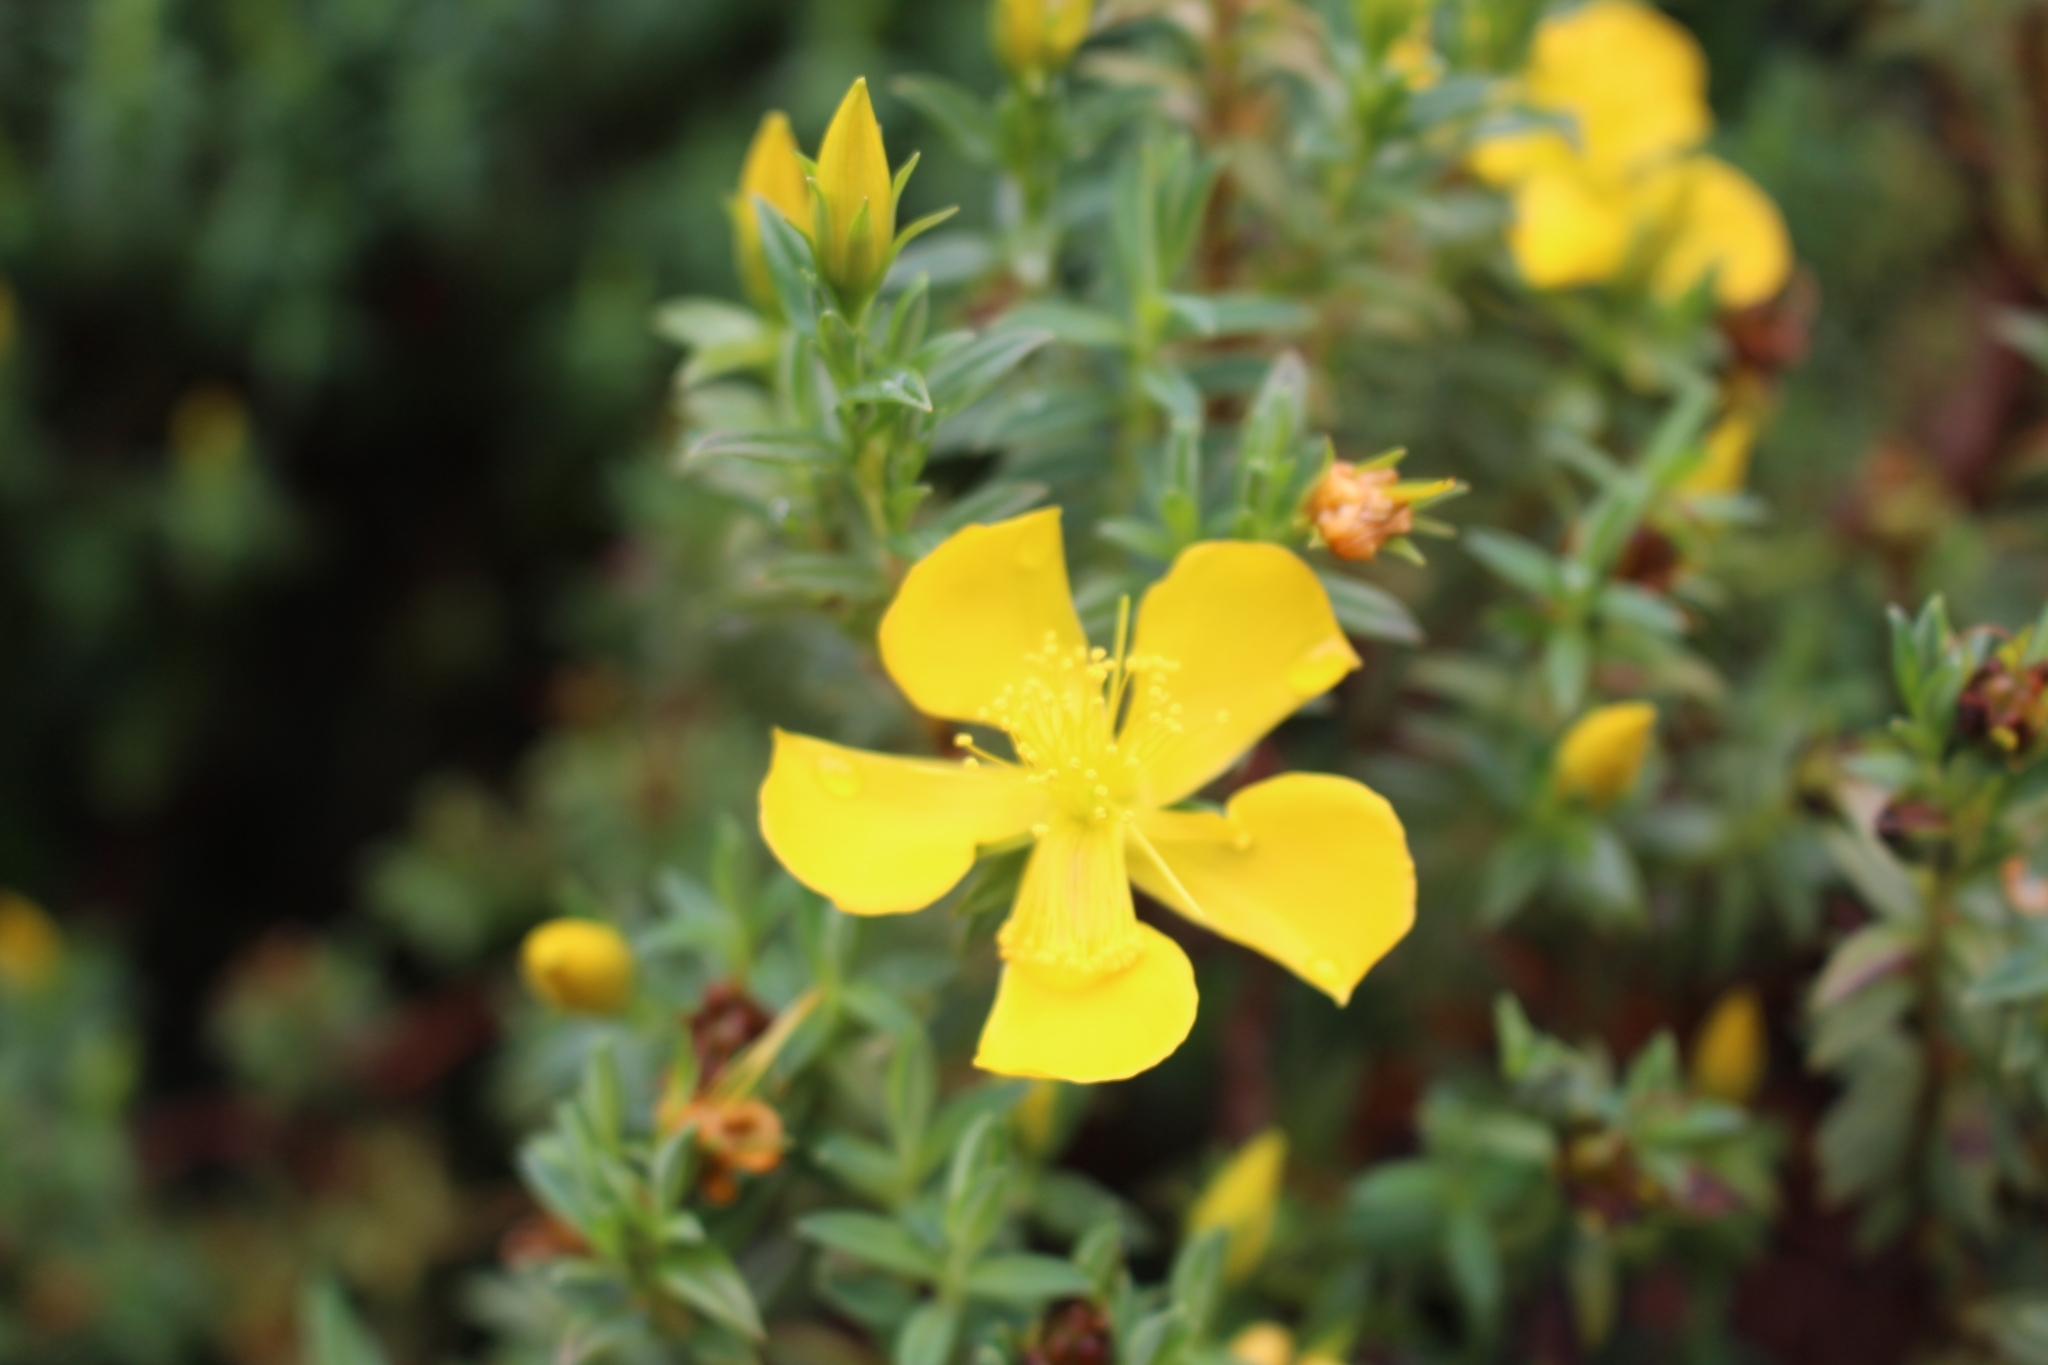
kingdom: Plantae
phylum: Tracheophyta
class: Magnoliopsida
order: Malpighiales
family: Hypericaceae
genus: Hypericum
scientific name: Hypericum irazuense
